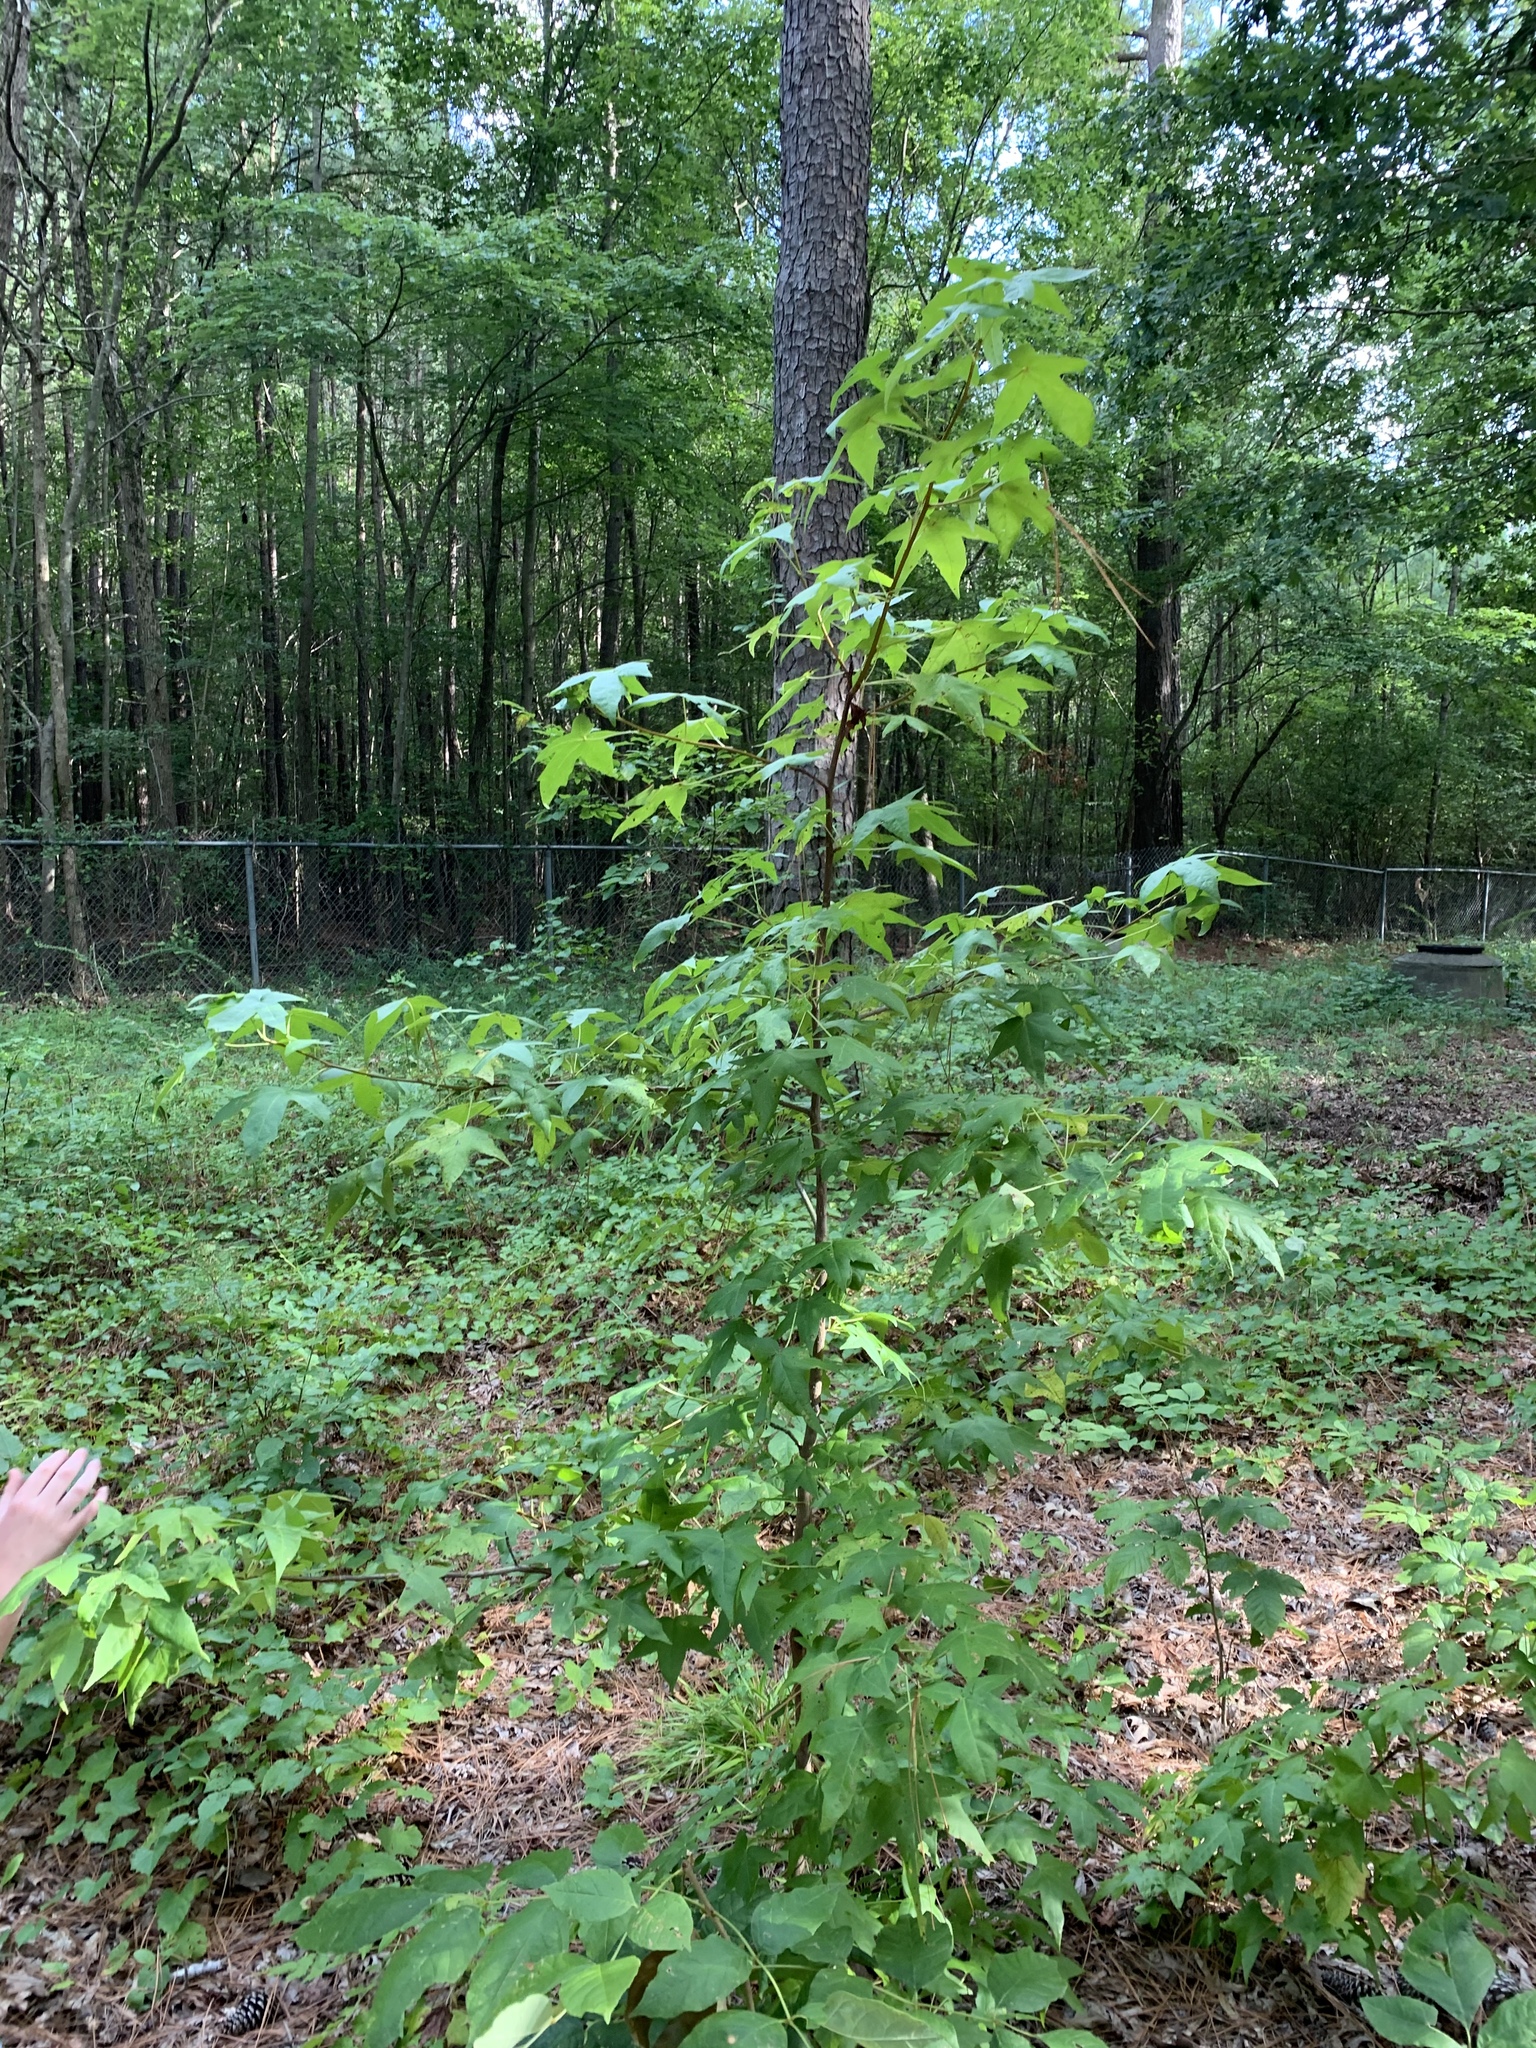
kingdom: Plantae
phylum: Tracheophyta
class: Magnoliopsida
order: Saxifragales
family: Altingiaceae
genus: Liquidambar
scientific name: Liquidambar styraciflua
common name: Sweet gum
